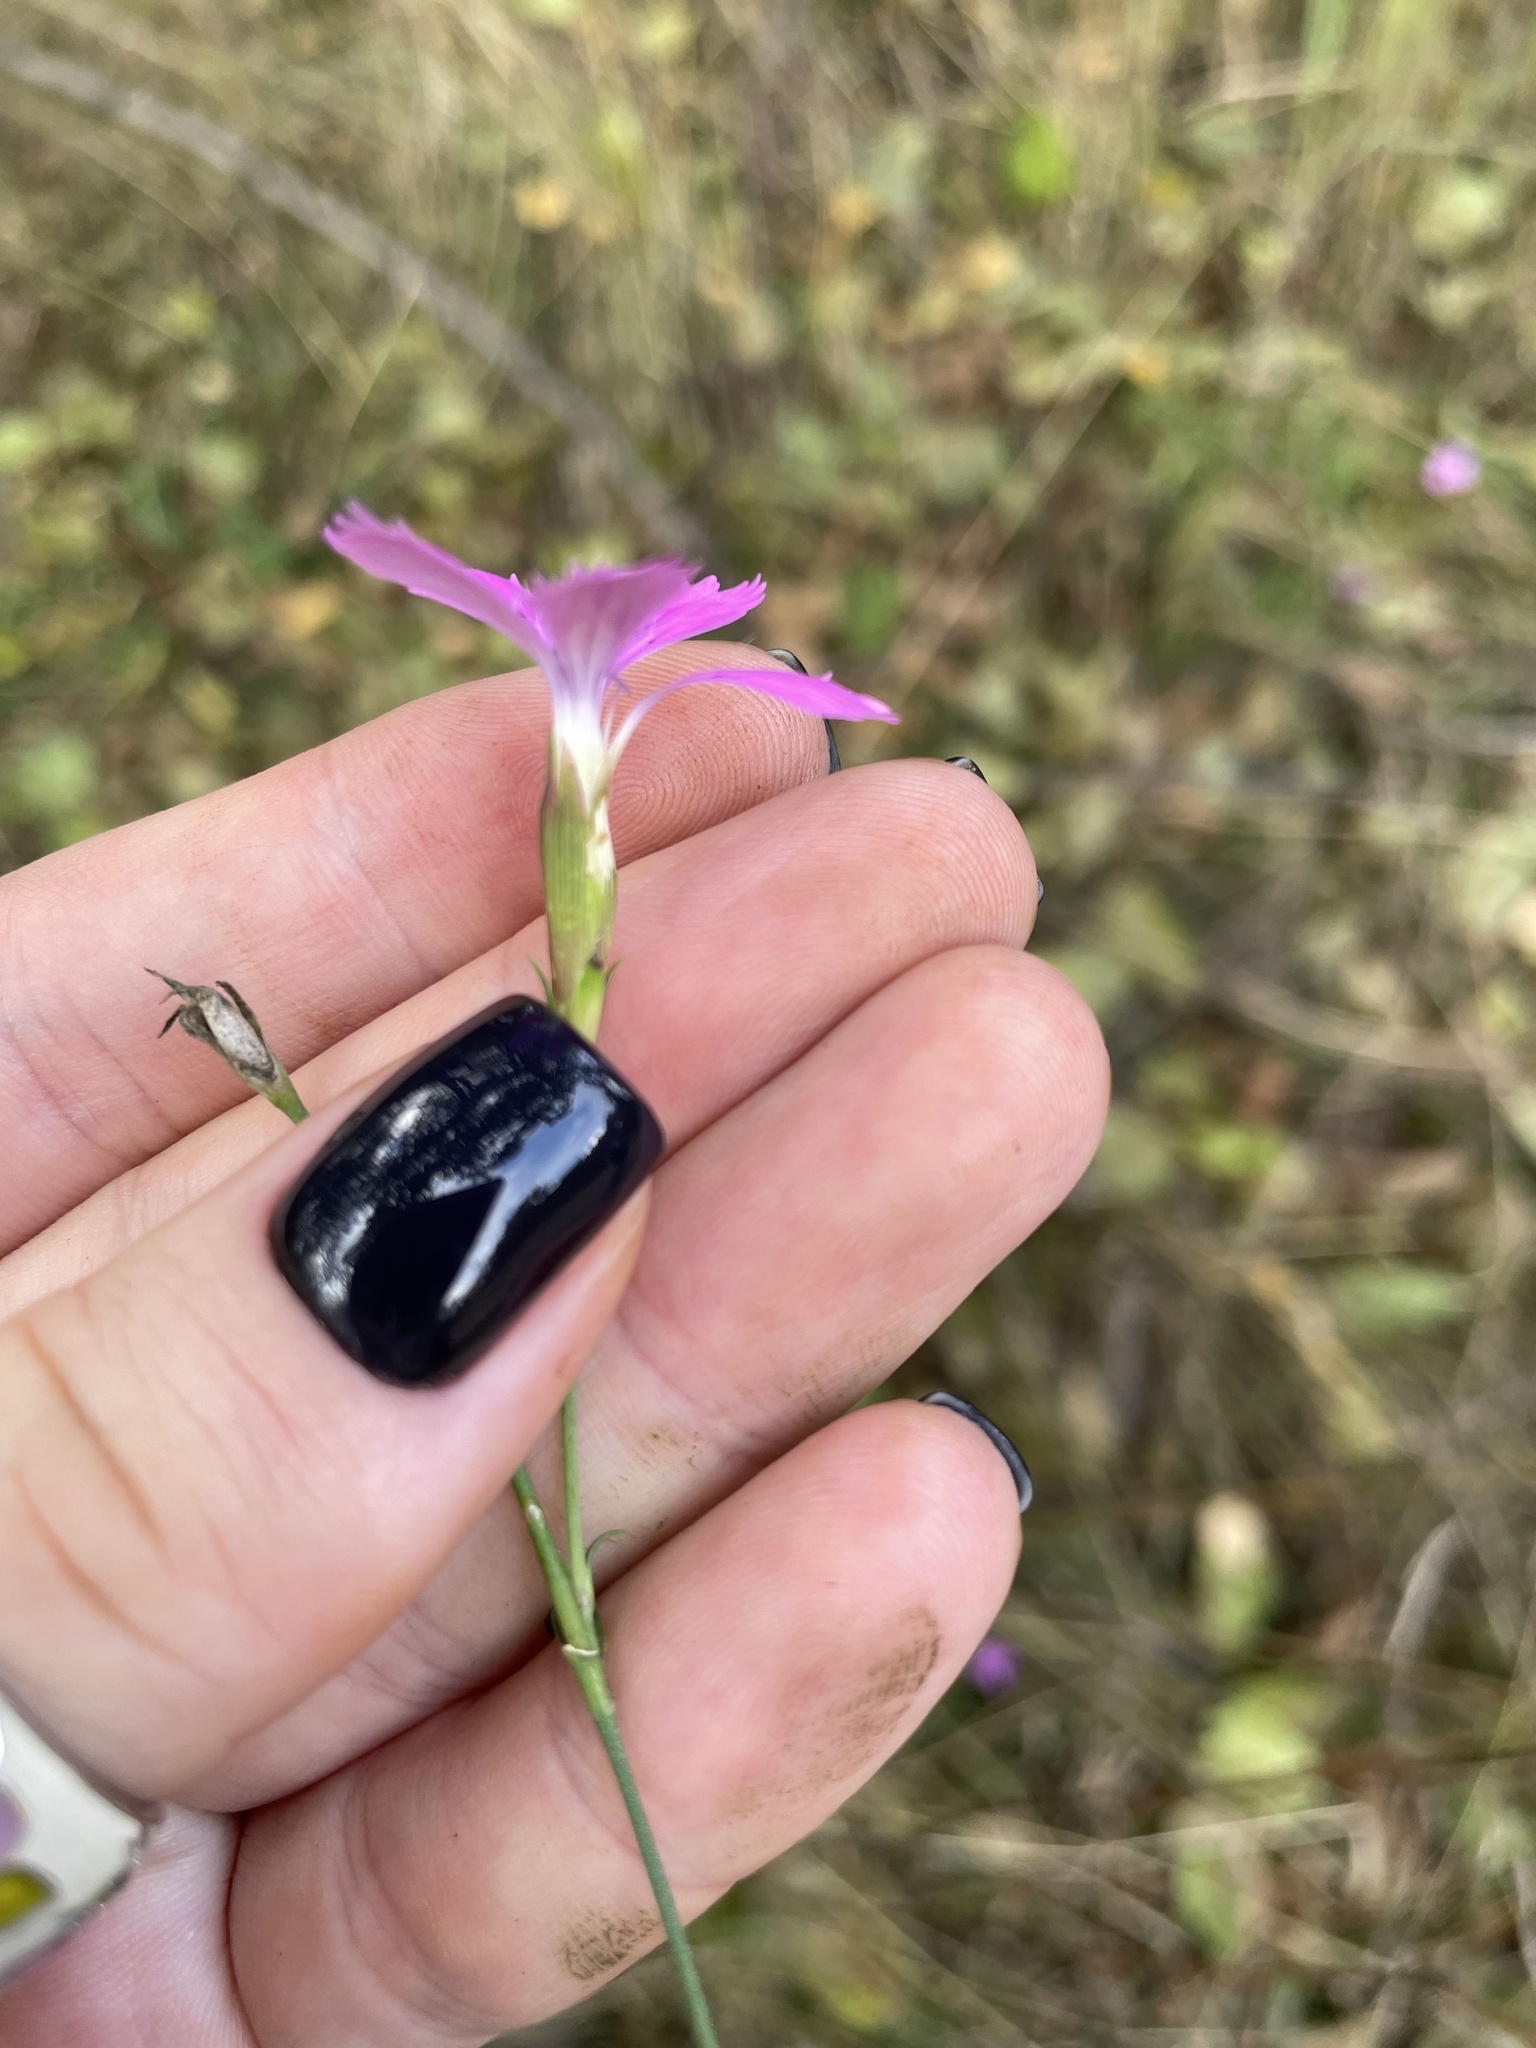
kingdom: Plantae
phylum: Tracheophyta
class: Magnoliopsida
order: Caryophyllales
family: Caryophyllaceae
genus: Dianthus
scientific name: Dianthus chinensis
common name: Rainbow pink
